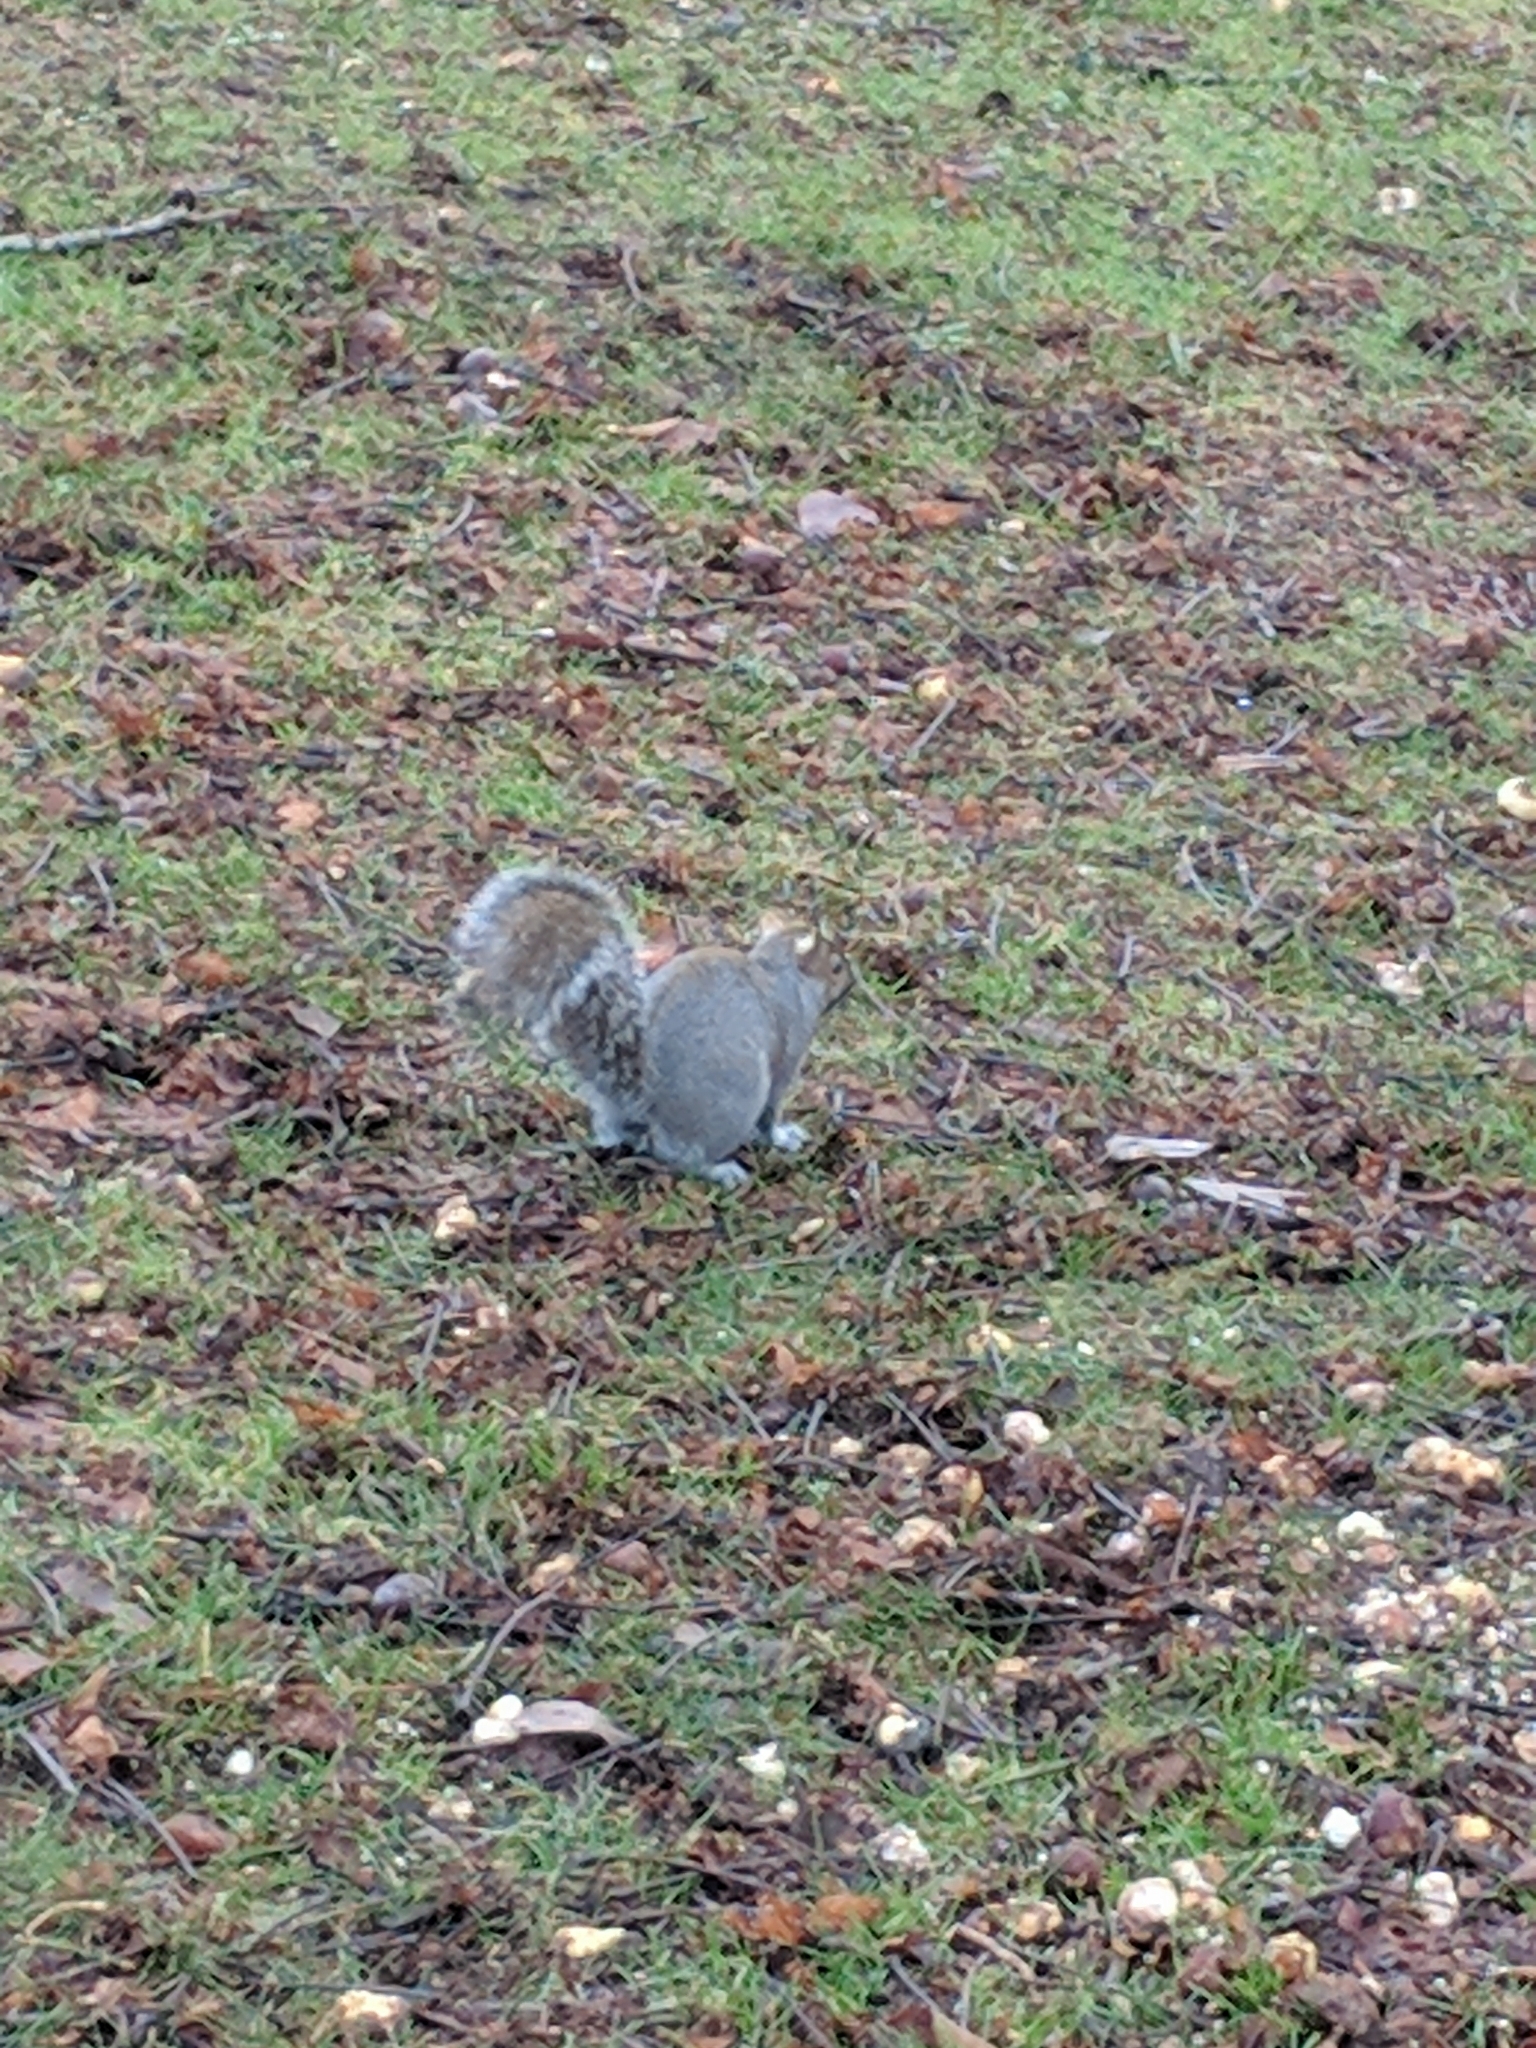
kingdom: Animalia
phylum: Chordata
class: Mammalia
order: Rodentia
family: Sciuridae
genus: Sciurus
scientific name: Sciurus carolinensis
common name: Eastern gray squirrel
